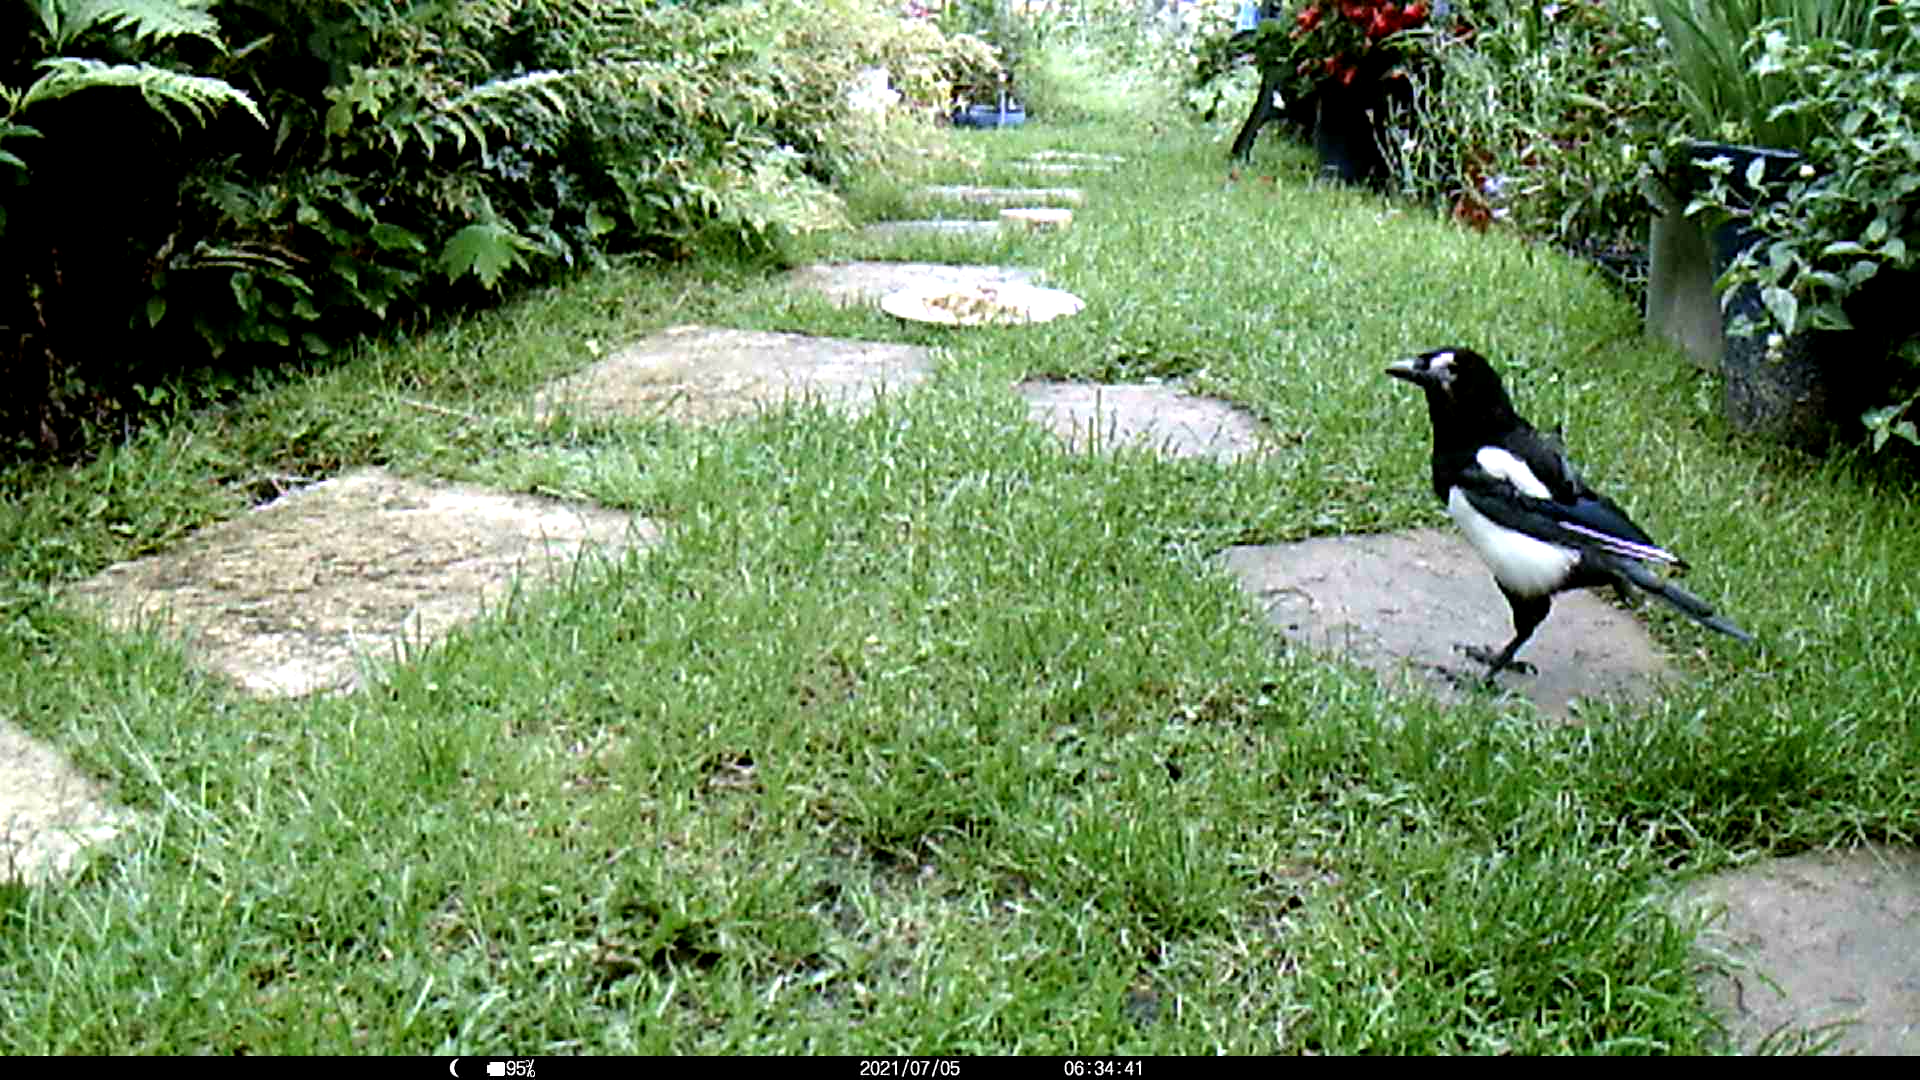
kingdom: Animalia
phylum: Chordata
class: Aves
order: Passeriformes
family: Corvidae
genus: Pica
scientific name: Pica pica
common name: Eurasian magpie
